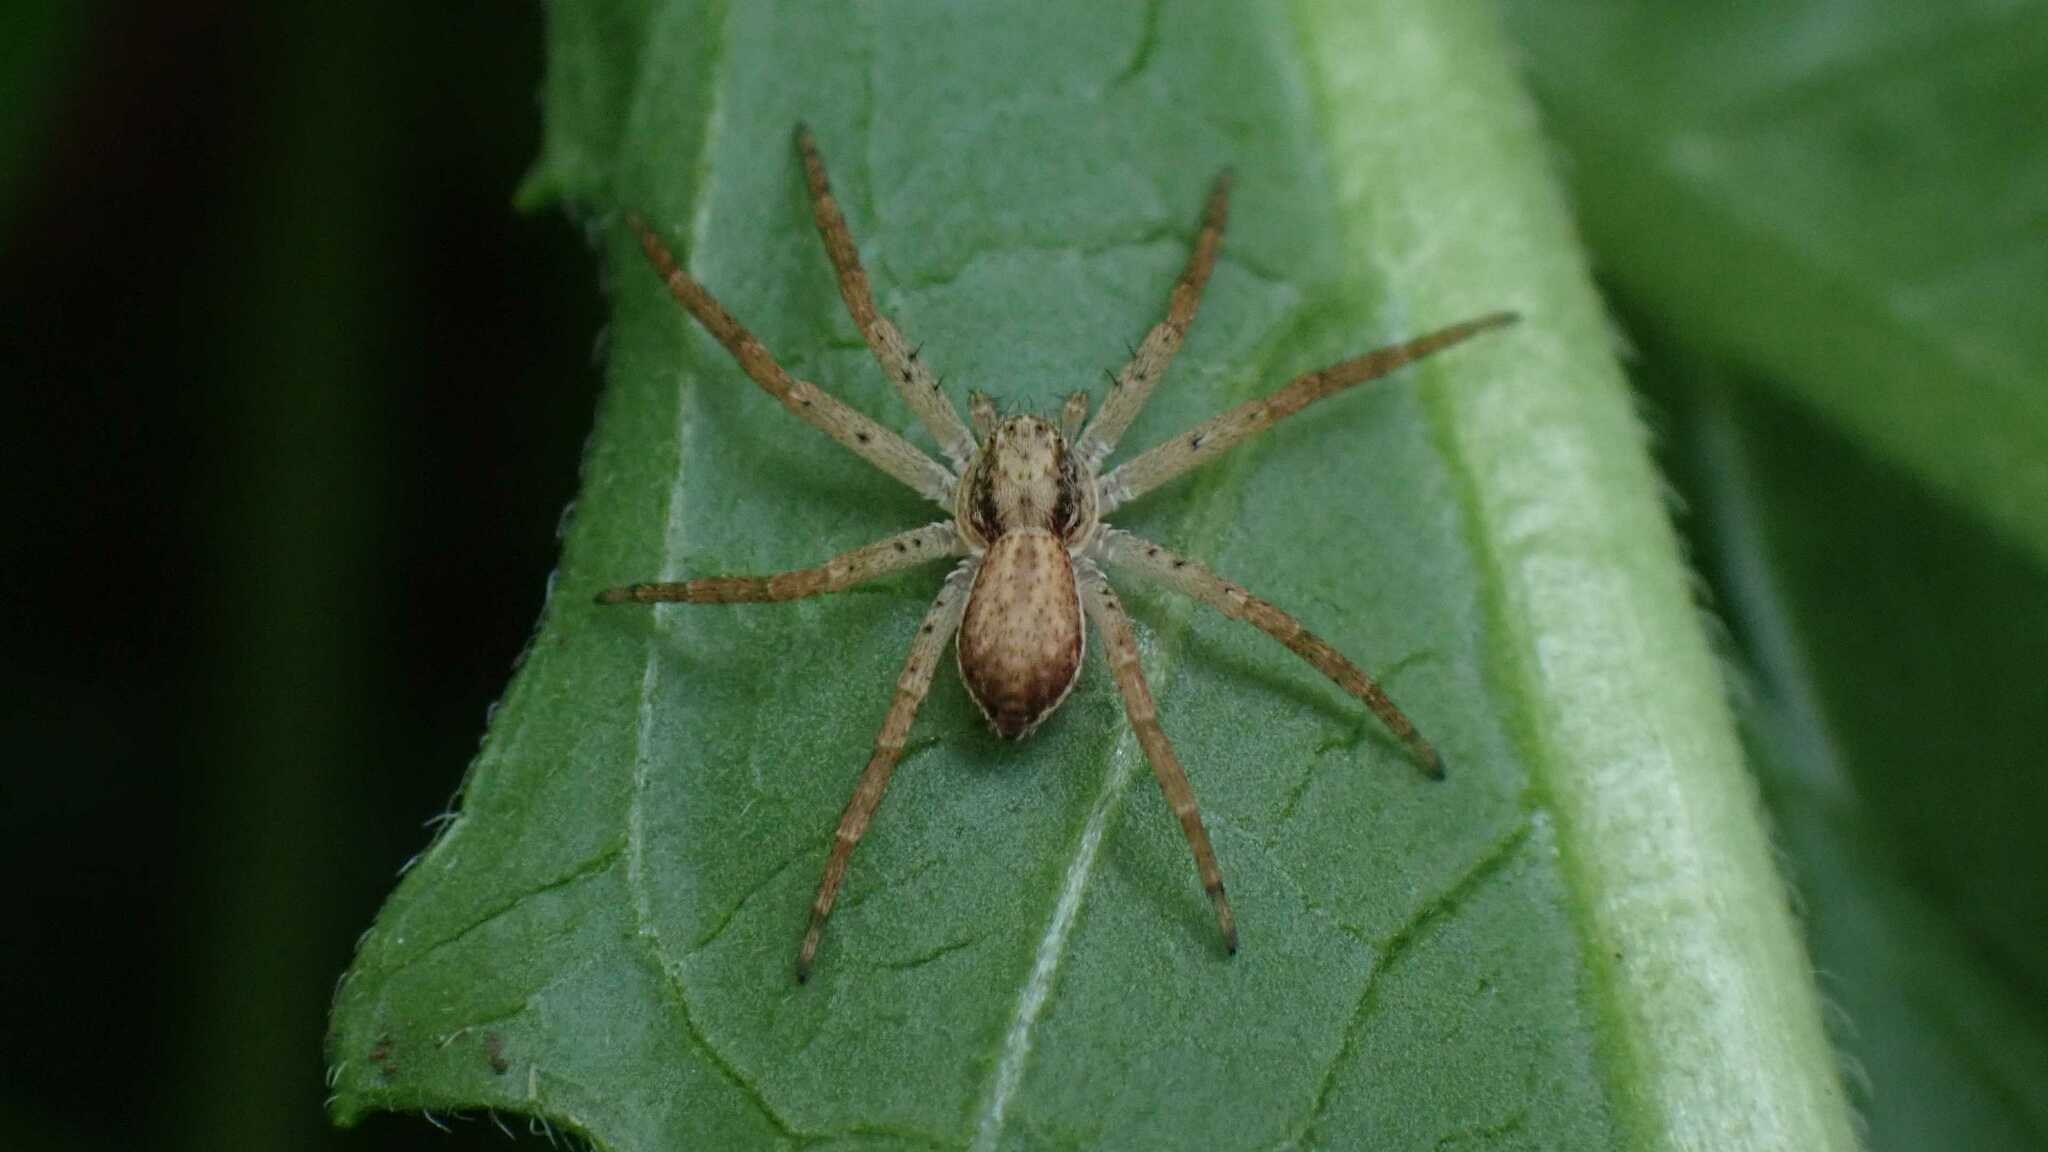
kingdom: Animalia
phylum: Arthropoda
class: Arachnida
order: Araneae
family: Philodromidae
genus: Philodromus
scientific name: Philodromus dispar
